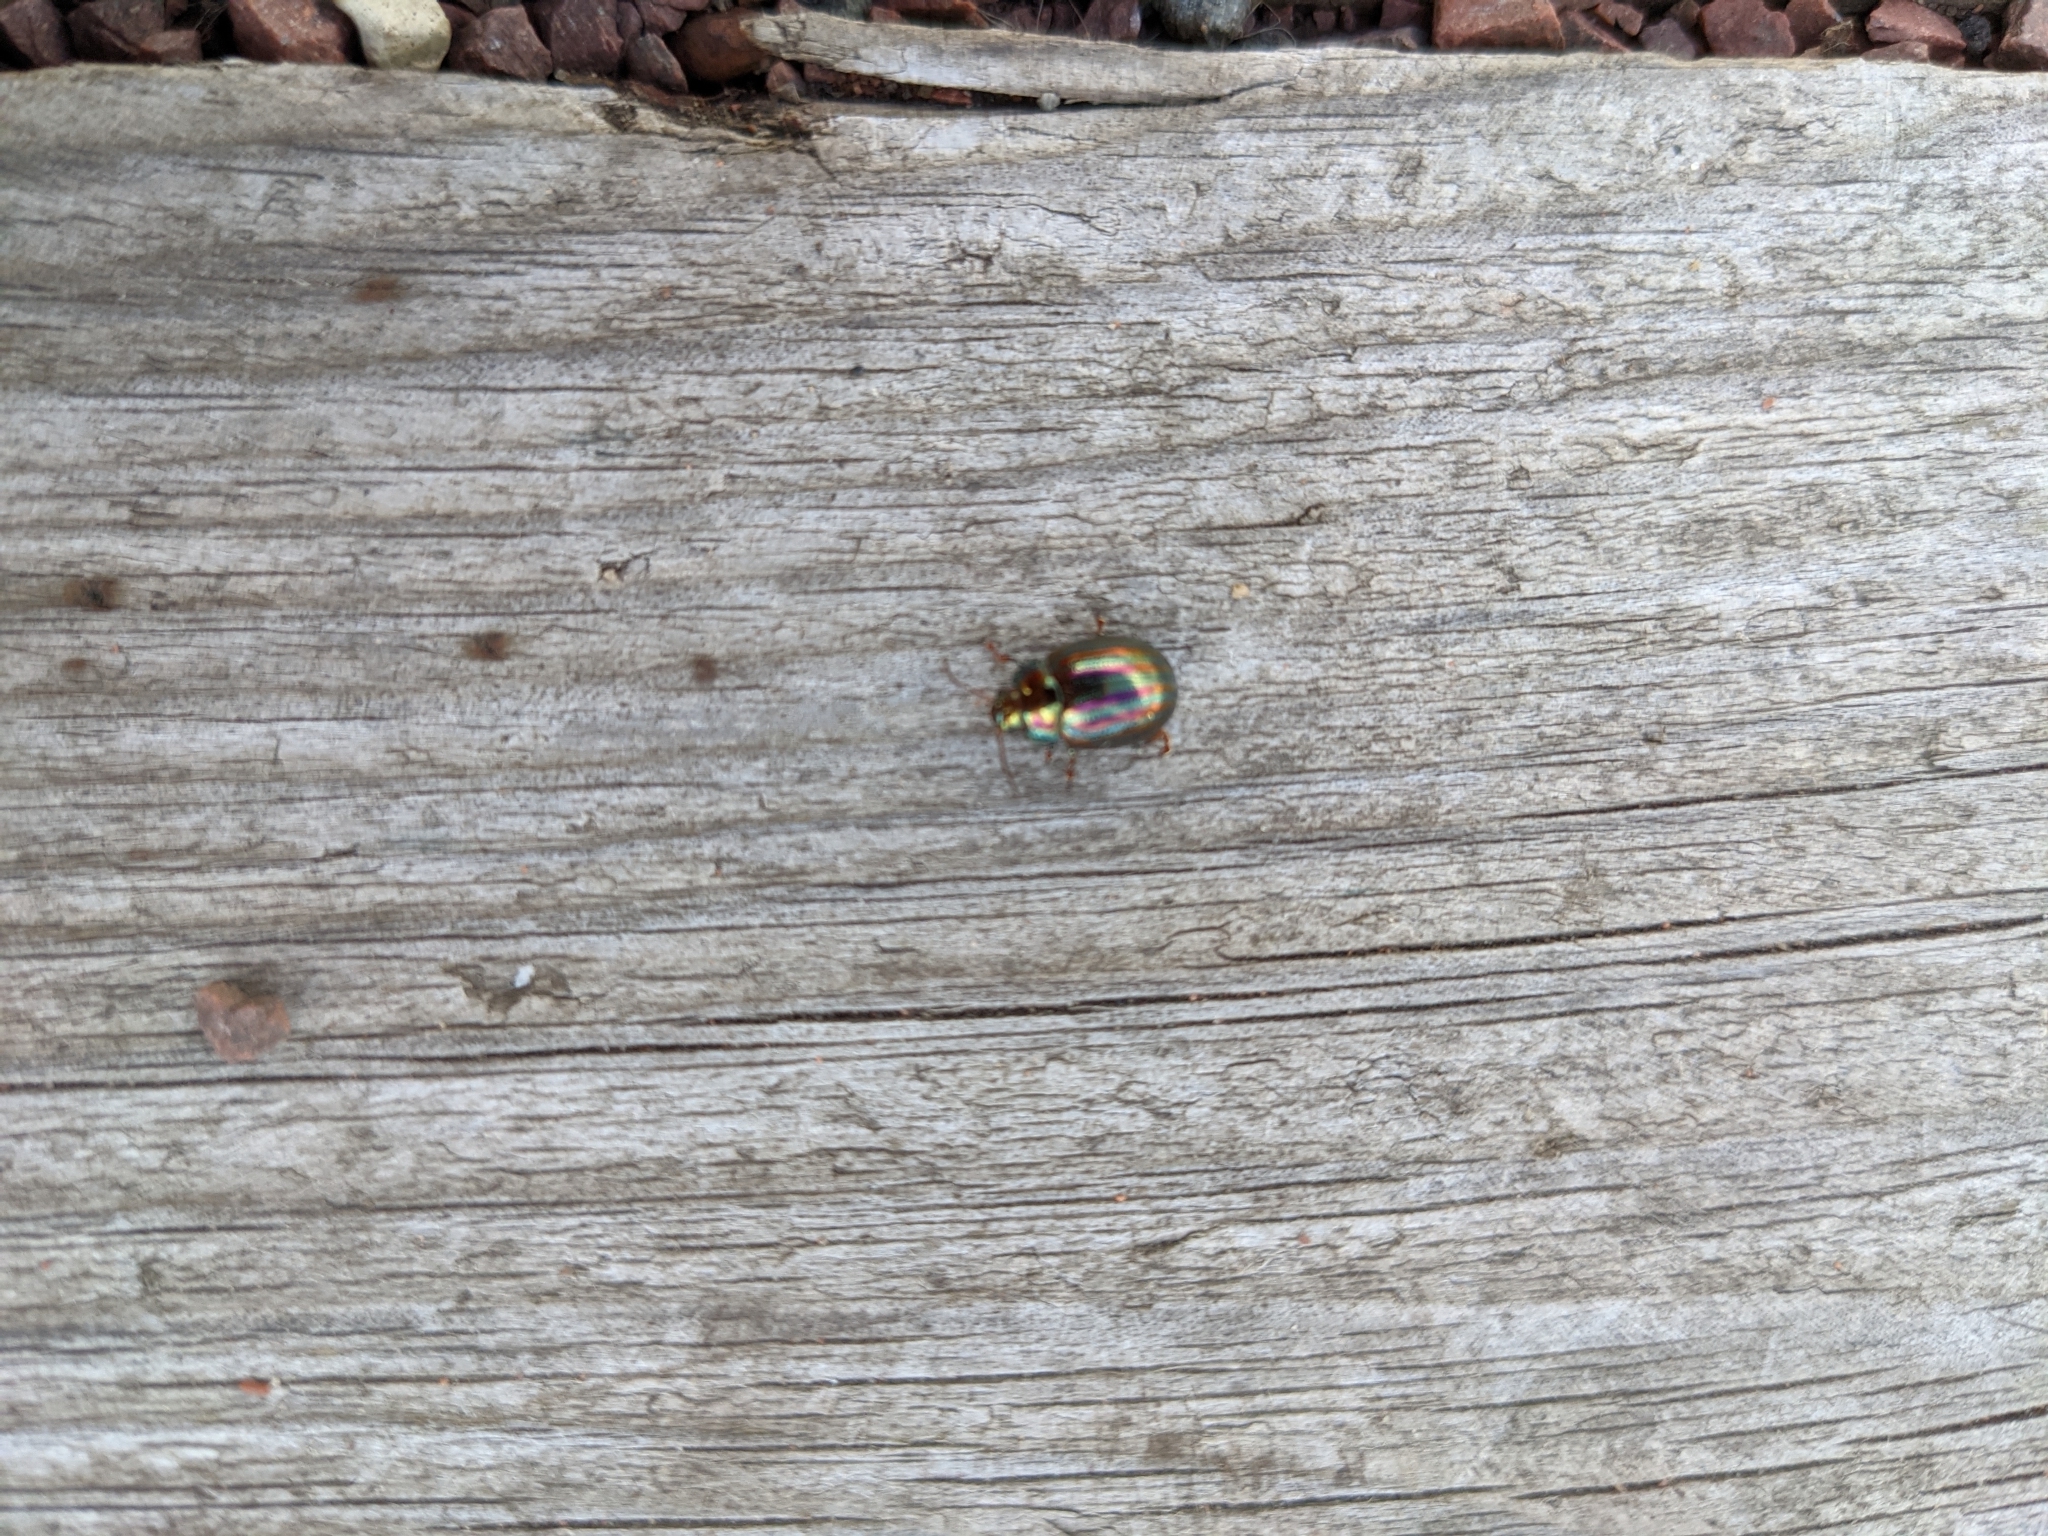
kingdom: Animalia
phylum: Arthropoda
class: Insecta
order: Coleoptera
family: Chrysomelidae
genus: Chrysolina
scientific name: Chrysolina americana
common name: Rosemary beetle
